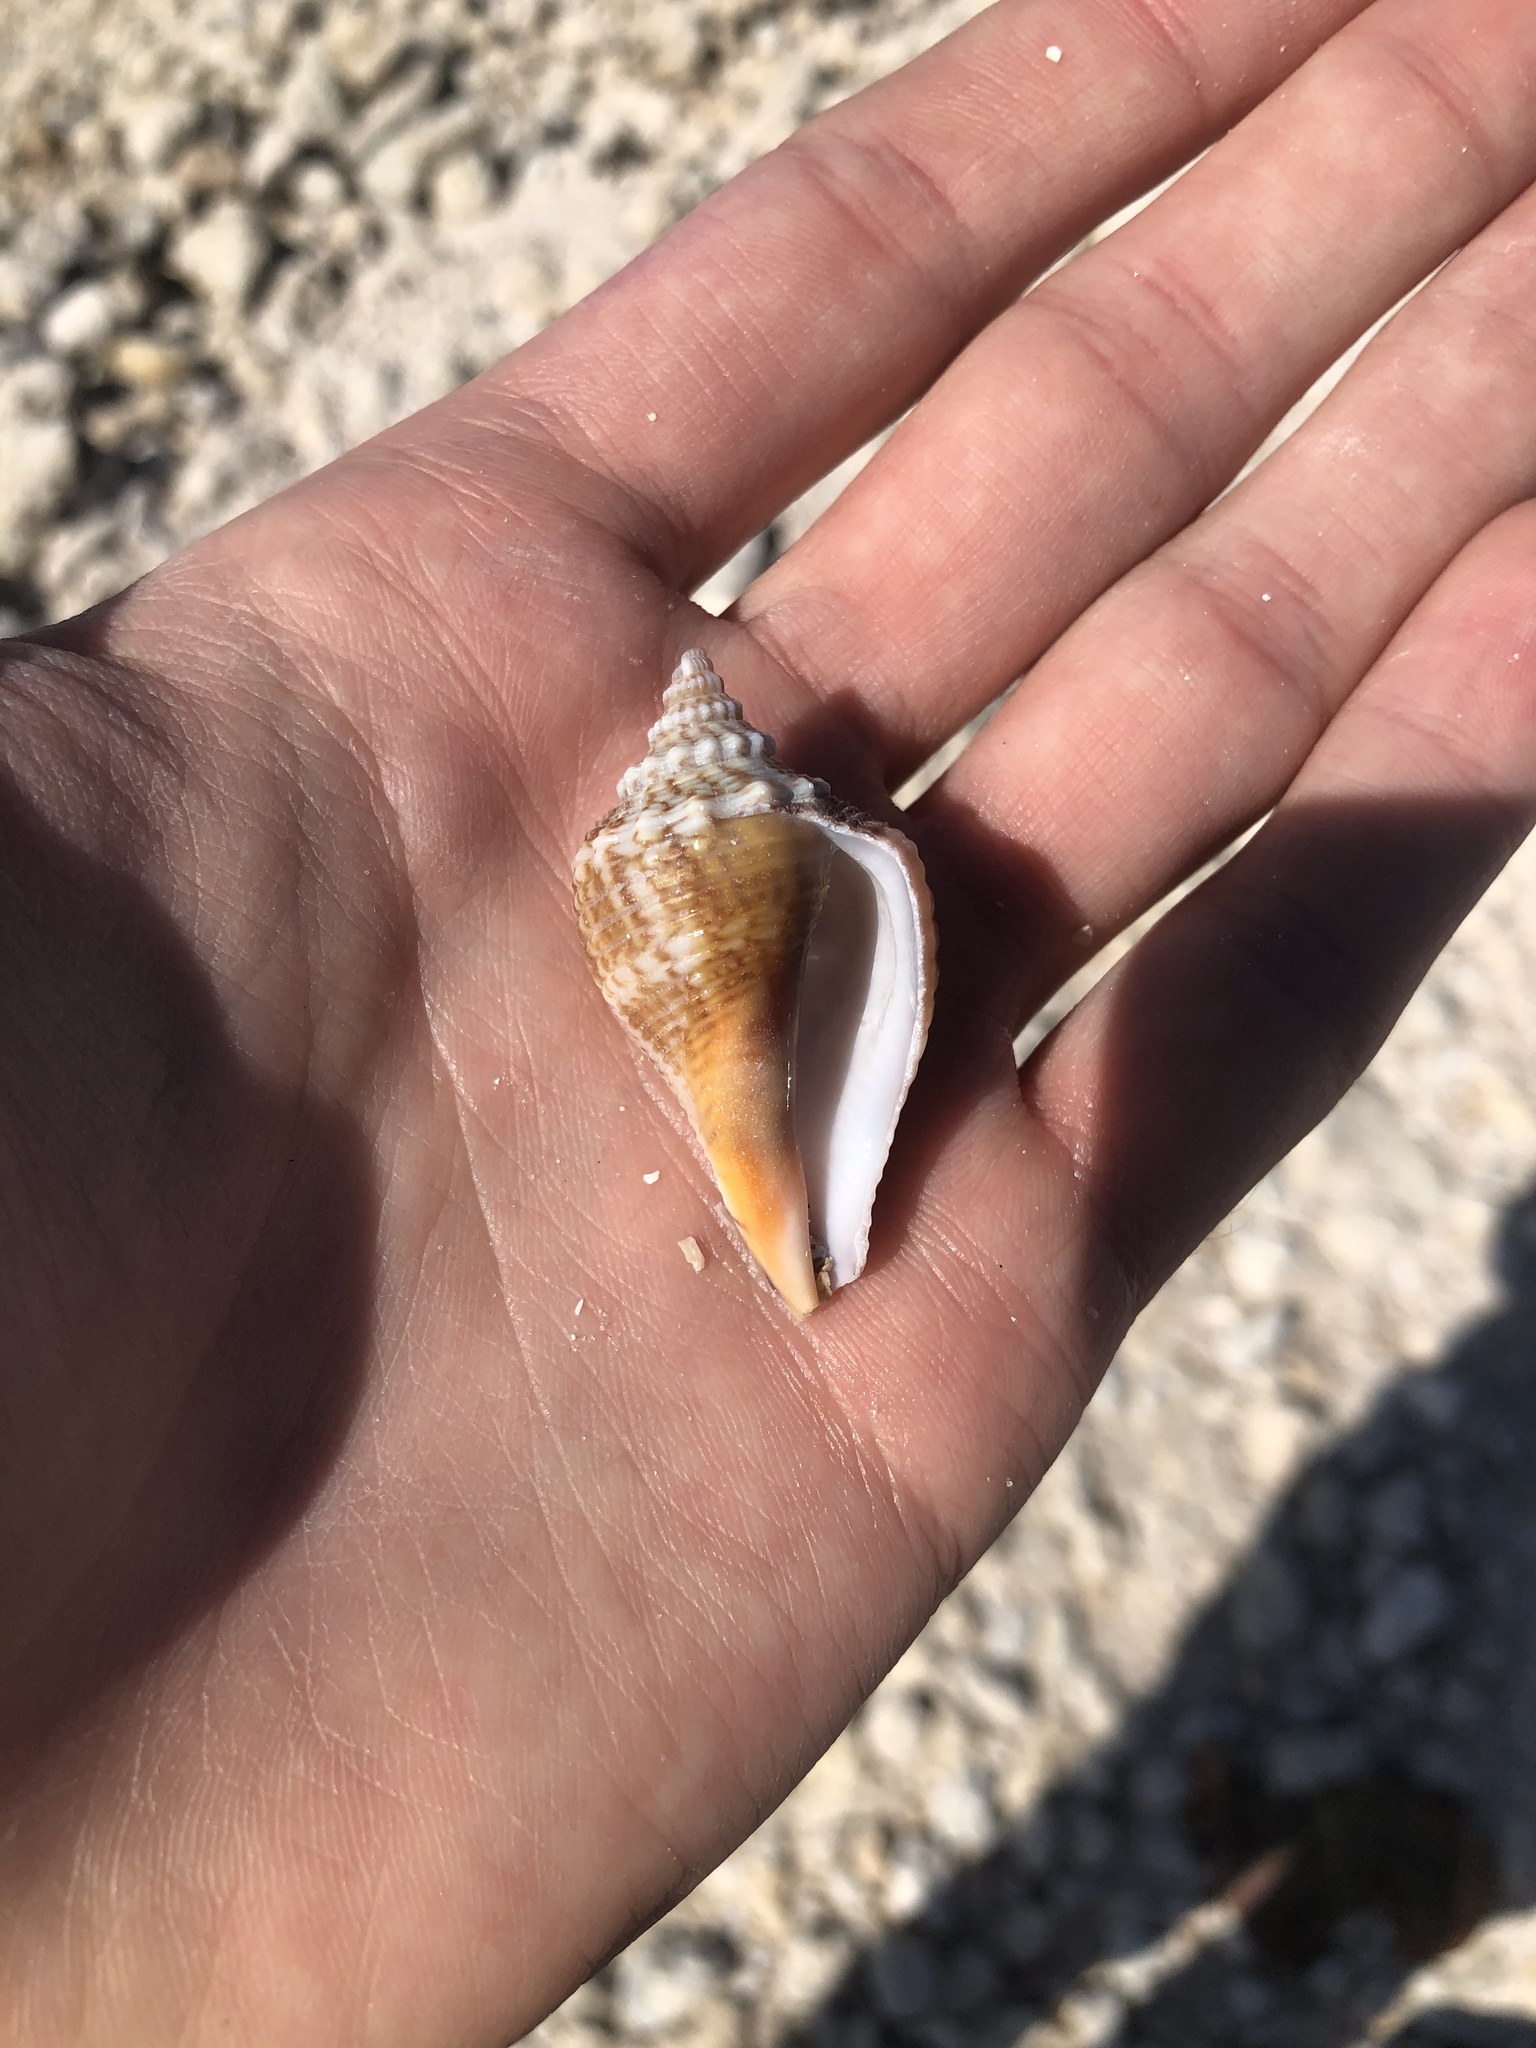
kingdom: Animalia
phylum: Mollusca
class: Gastropoda
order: Littorinimorpha
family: Strombidae
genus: Strombus
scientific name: Strombus alatus
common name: Florida fighting conch
